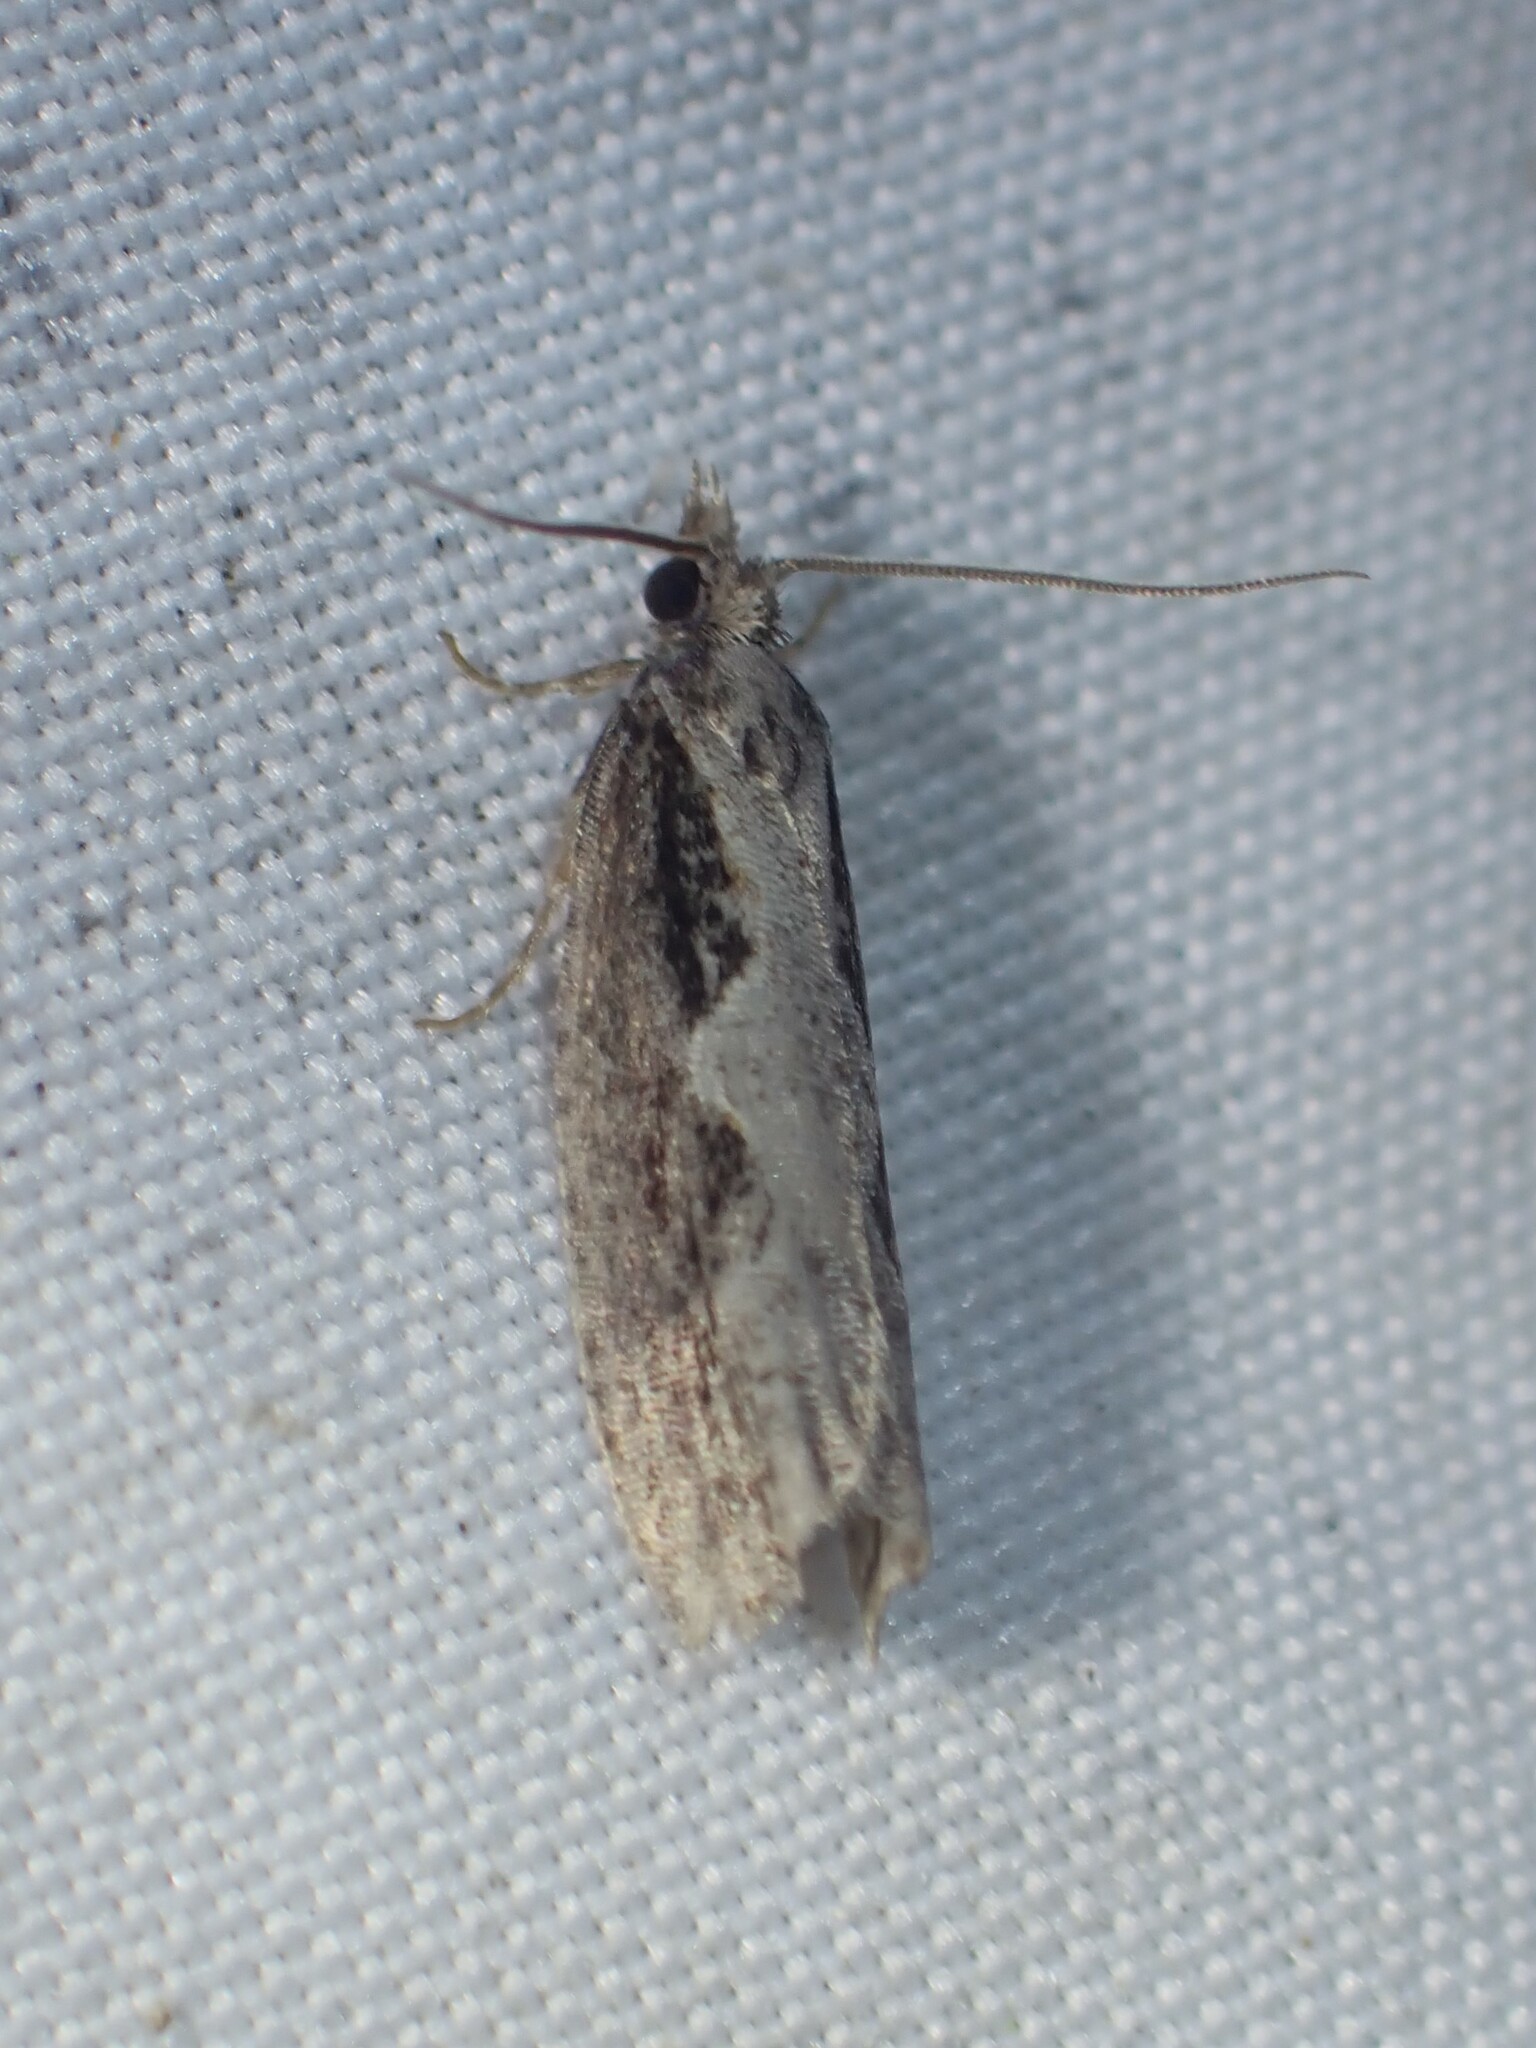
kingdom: Animalia
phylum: Arthropoda
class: Insecta
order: Lepidoptera
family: Tortricidae
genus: Epinotia
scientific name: Epinotia lindana
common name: Diamondback epinotia moth
